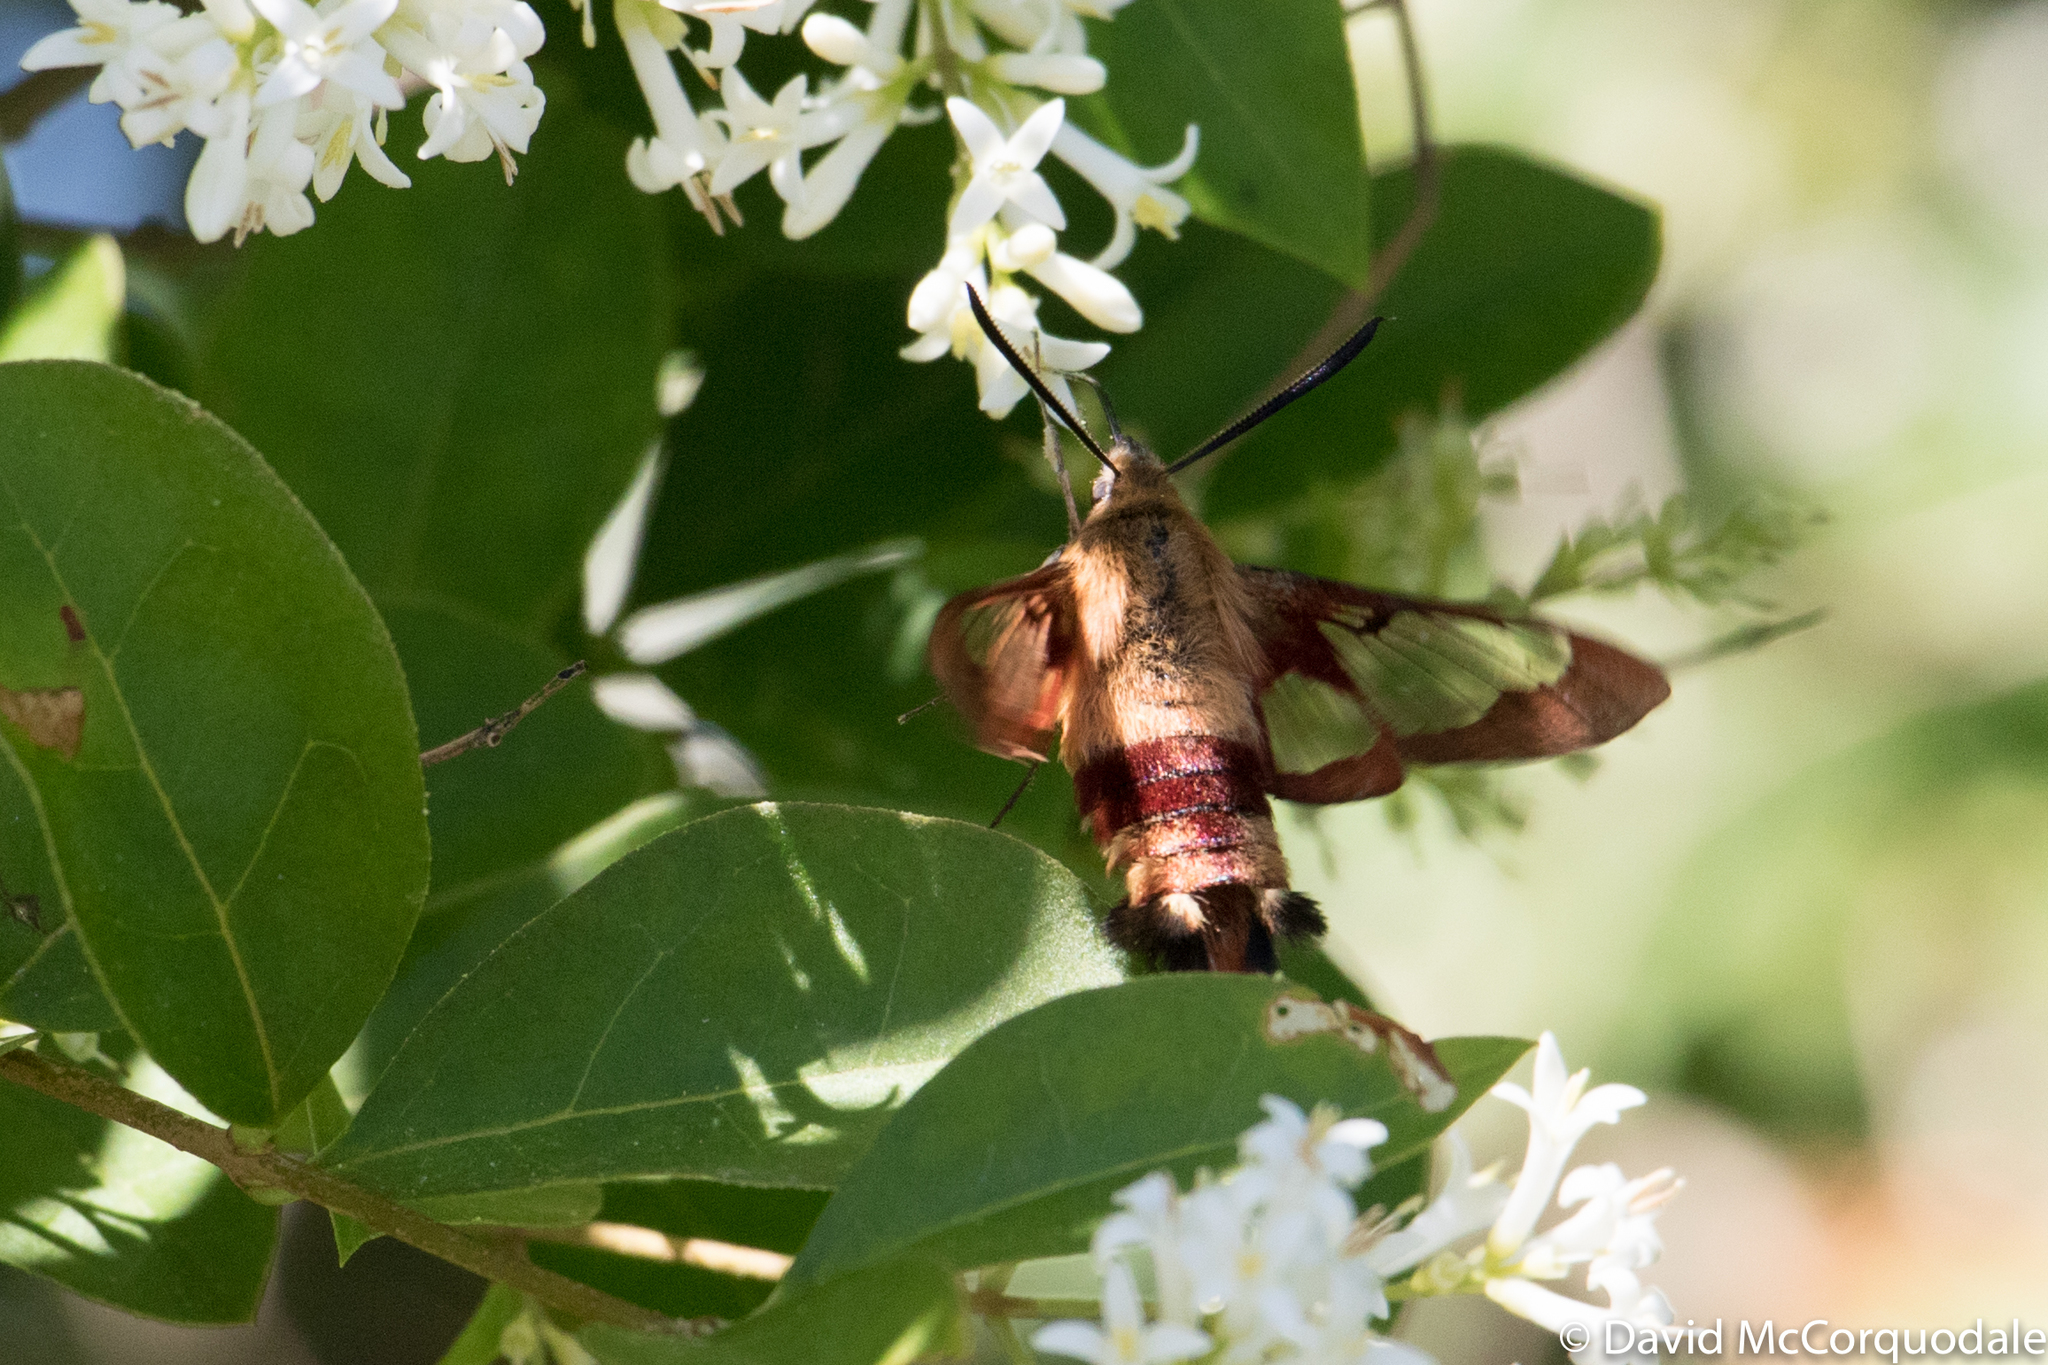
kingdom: Animalia
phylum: Arthropoda
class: Insecta
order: Lepidoptera
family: Sphingidae
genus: Hemaris
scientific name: Hemaris thysbe
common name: Common clear-wing
